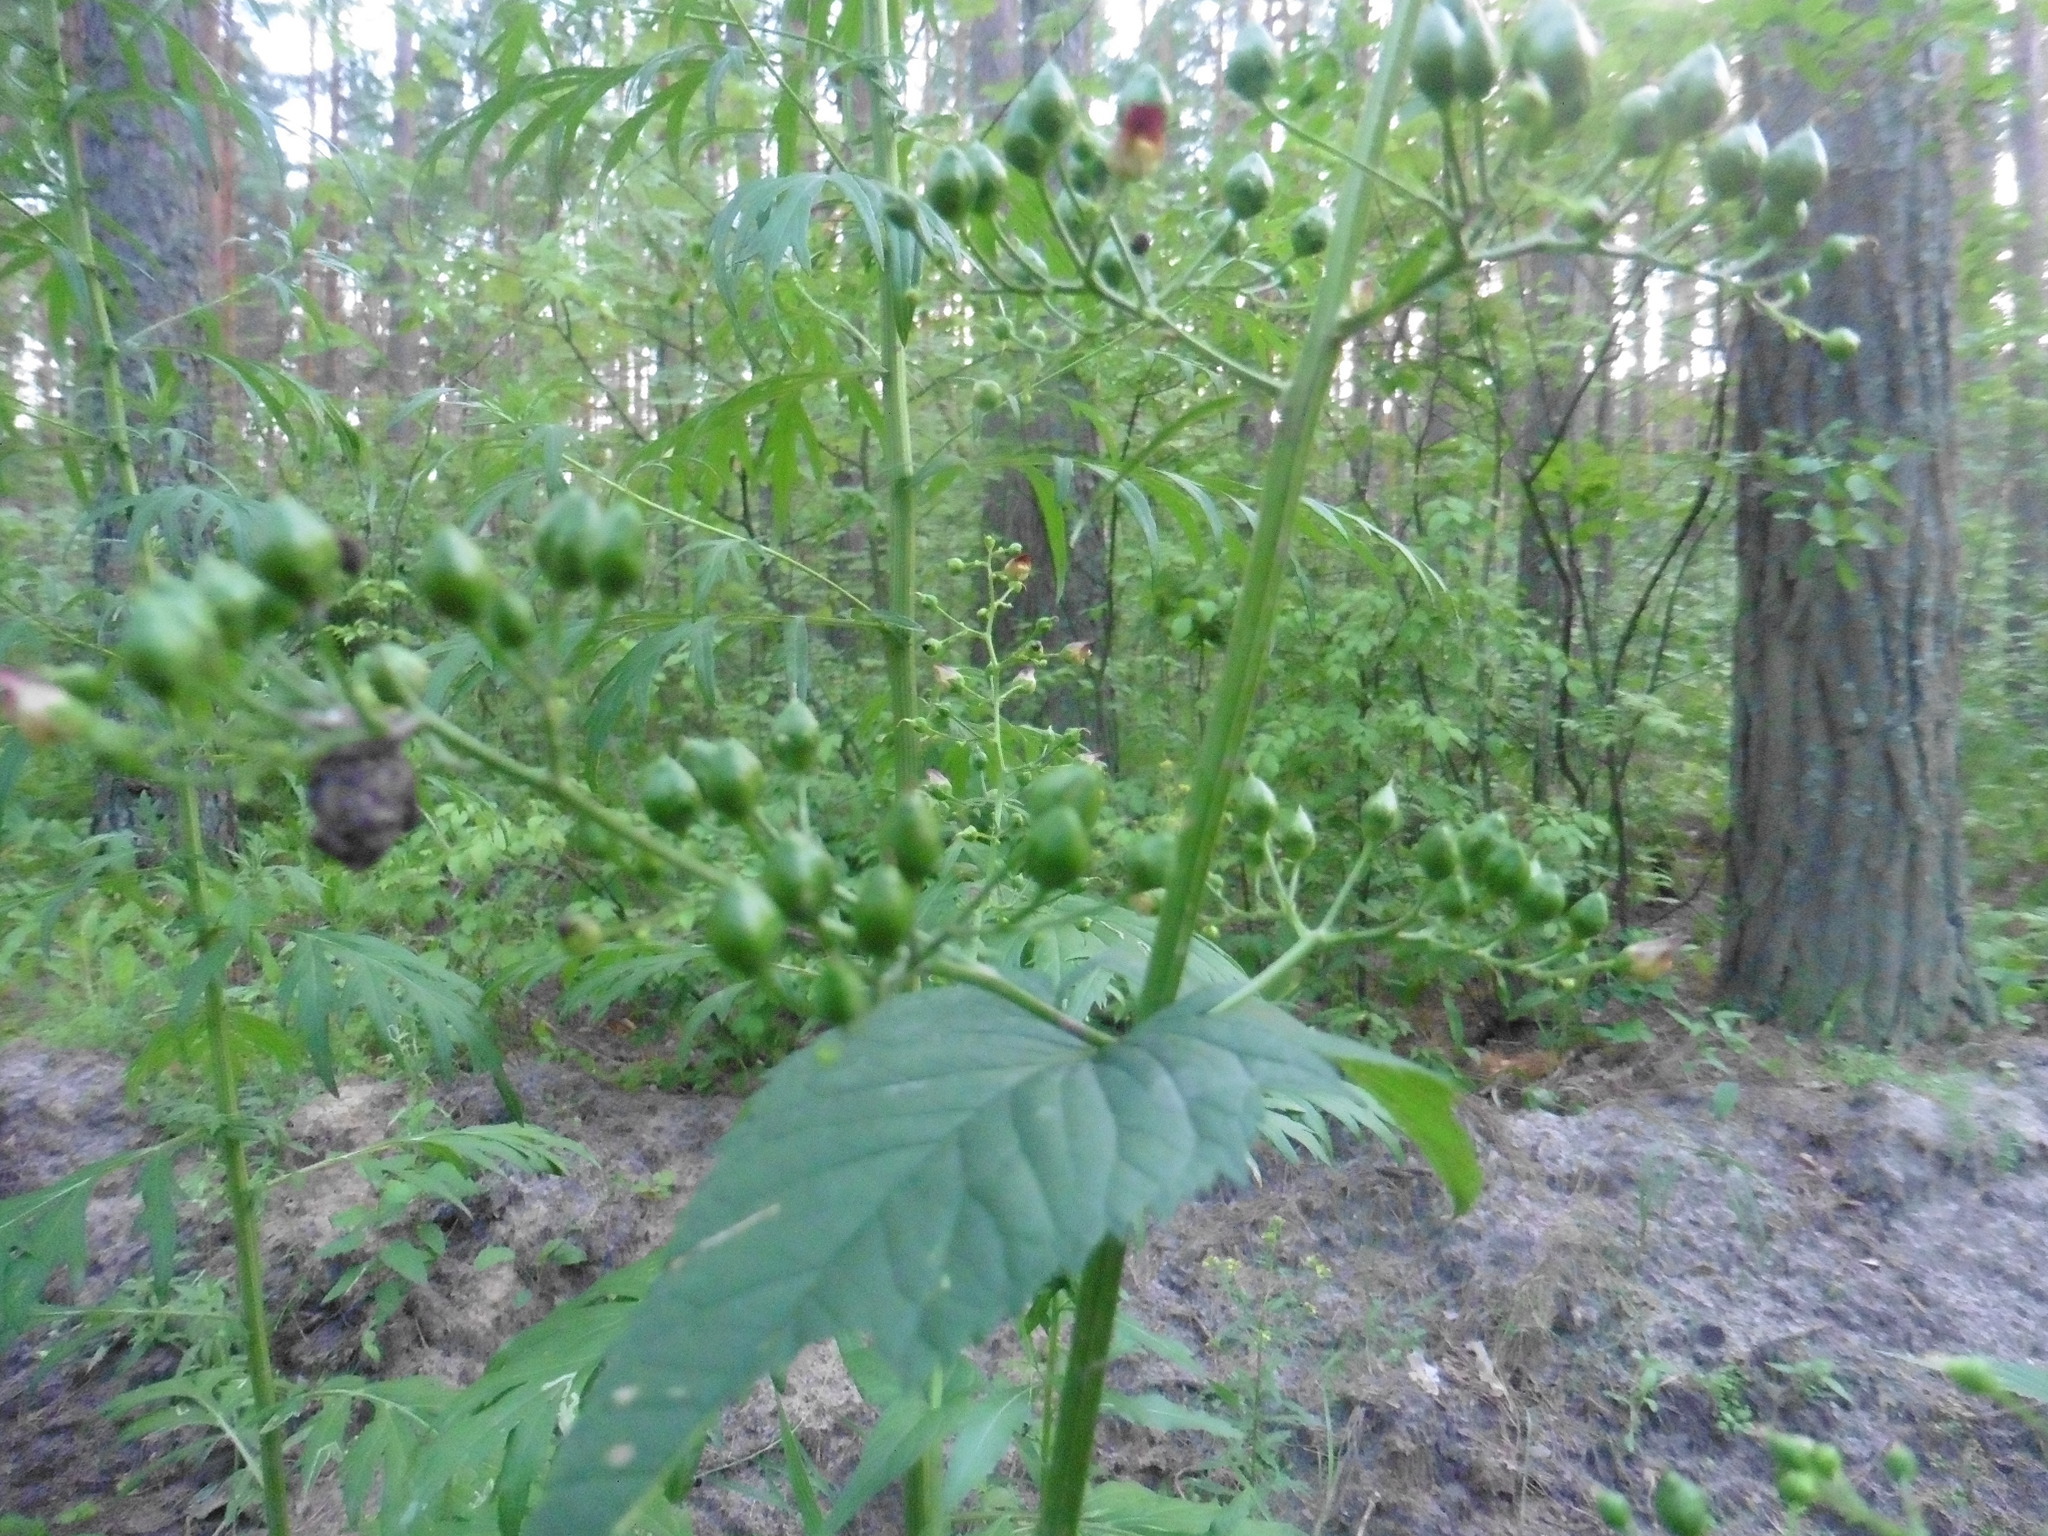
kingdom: Plantae
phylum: Tracheophyta
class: Magnoliopsida
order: Lamiales
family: Scrophulariaceae
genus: Scrophularia
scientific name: Scrophularia nodosa
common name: Common figwort
